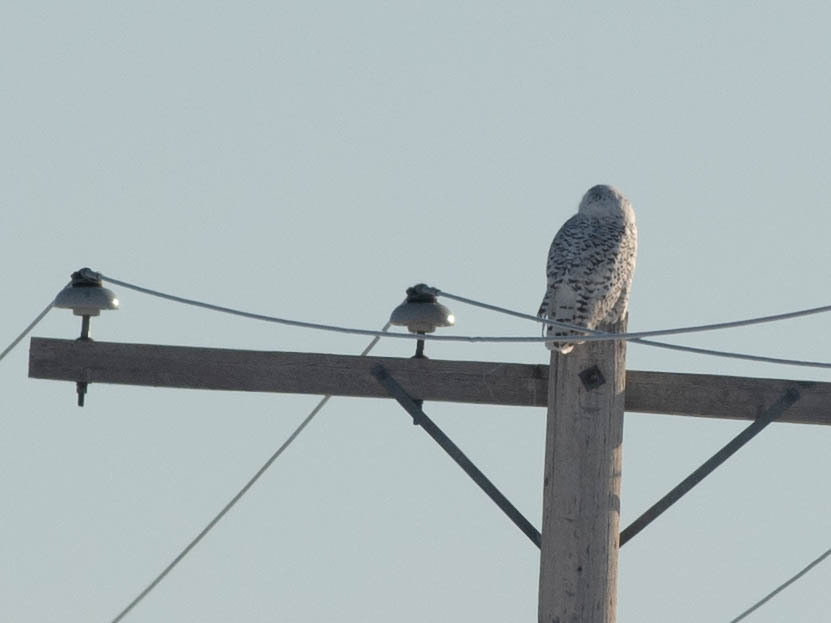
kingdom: Animalia
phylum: Chordata
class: Aves
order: Strigiformes
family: Strigidae
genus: Bubo
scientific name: Bubo scandiacus
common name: Snowy owl
